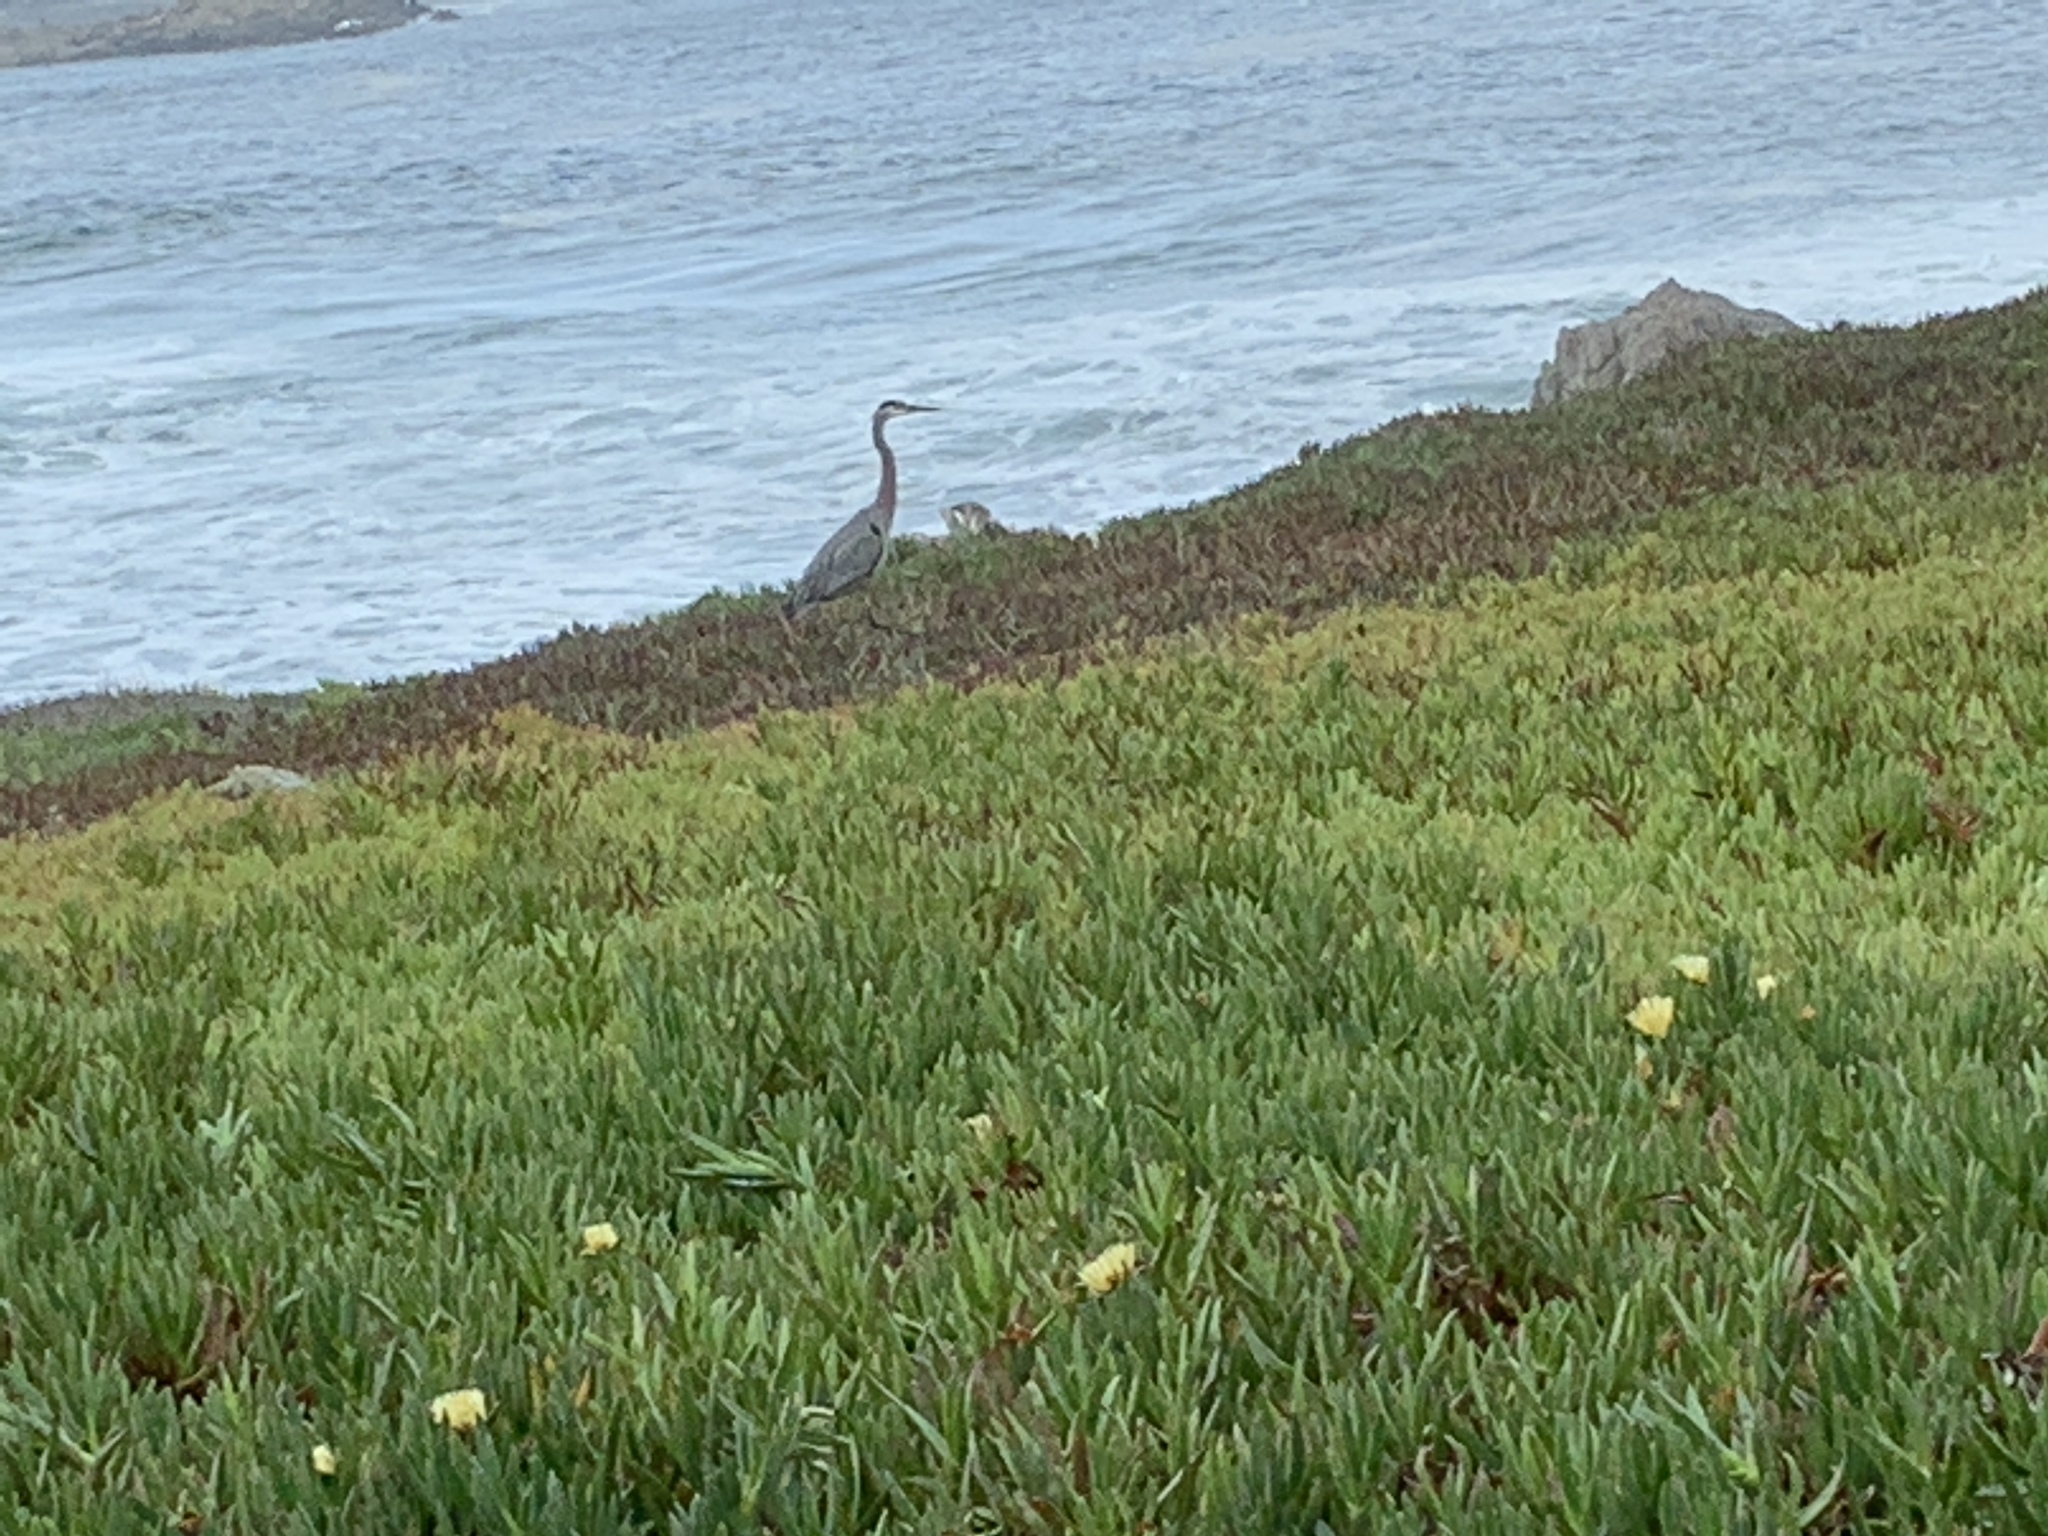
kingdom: Animalia
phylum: Chordata
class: Aves
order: Pelecaniformes
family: Ardeidae
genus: Ardea
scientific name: Ardea herodias
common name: Great blue heron
